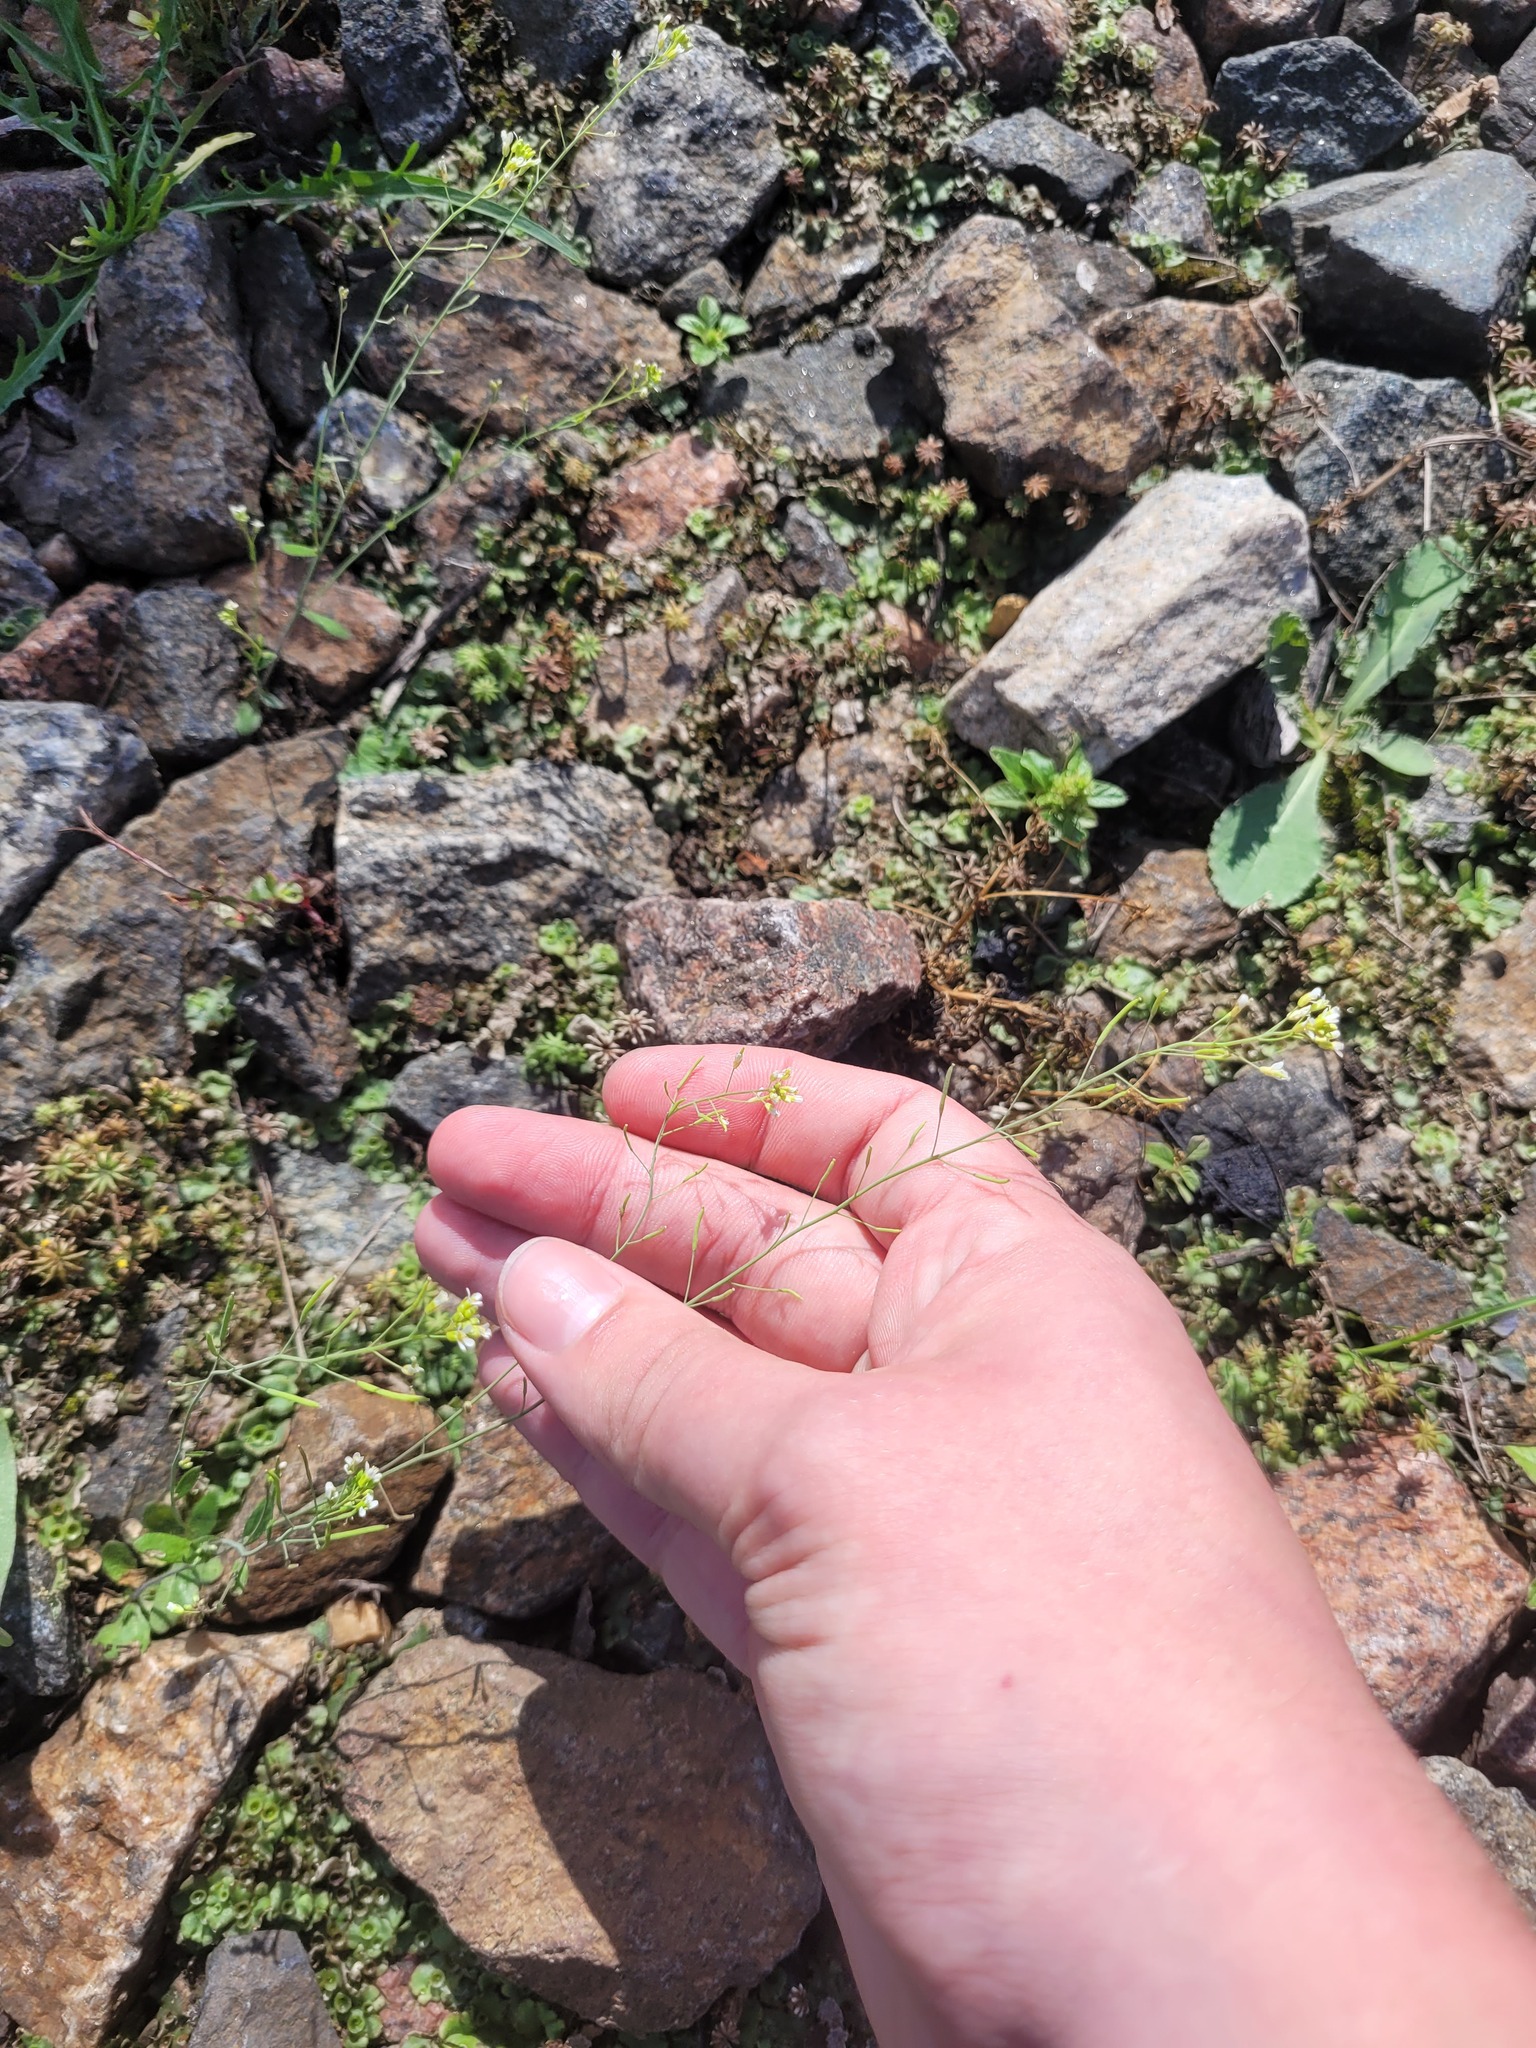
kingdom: Plantae
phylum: Tracheophyta
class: Magnoliopsida
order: Brassicales
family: Brassicaceae
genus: Arabidopsis
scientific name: Arabidopsis thaliana
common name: Thale cress
